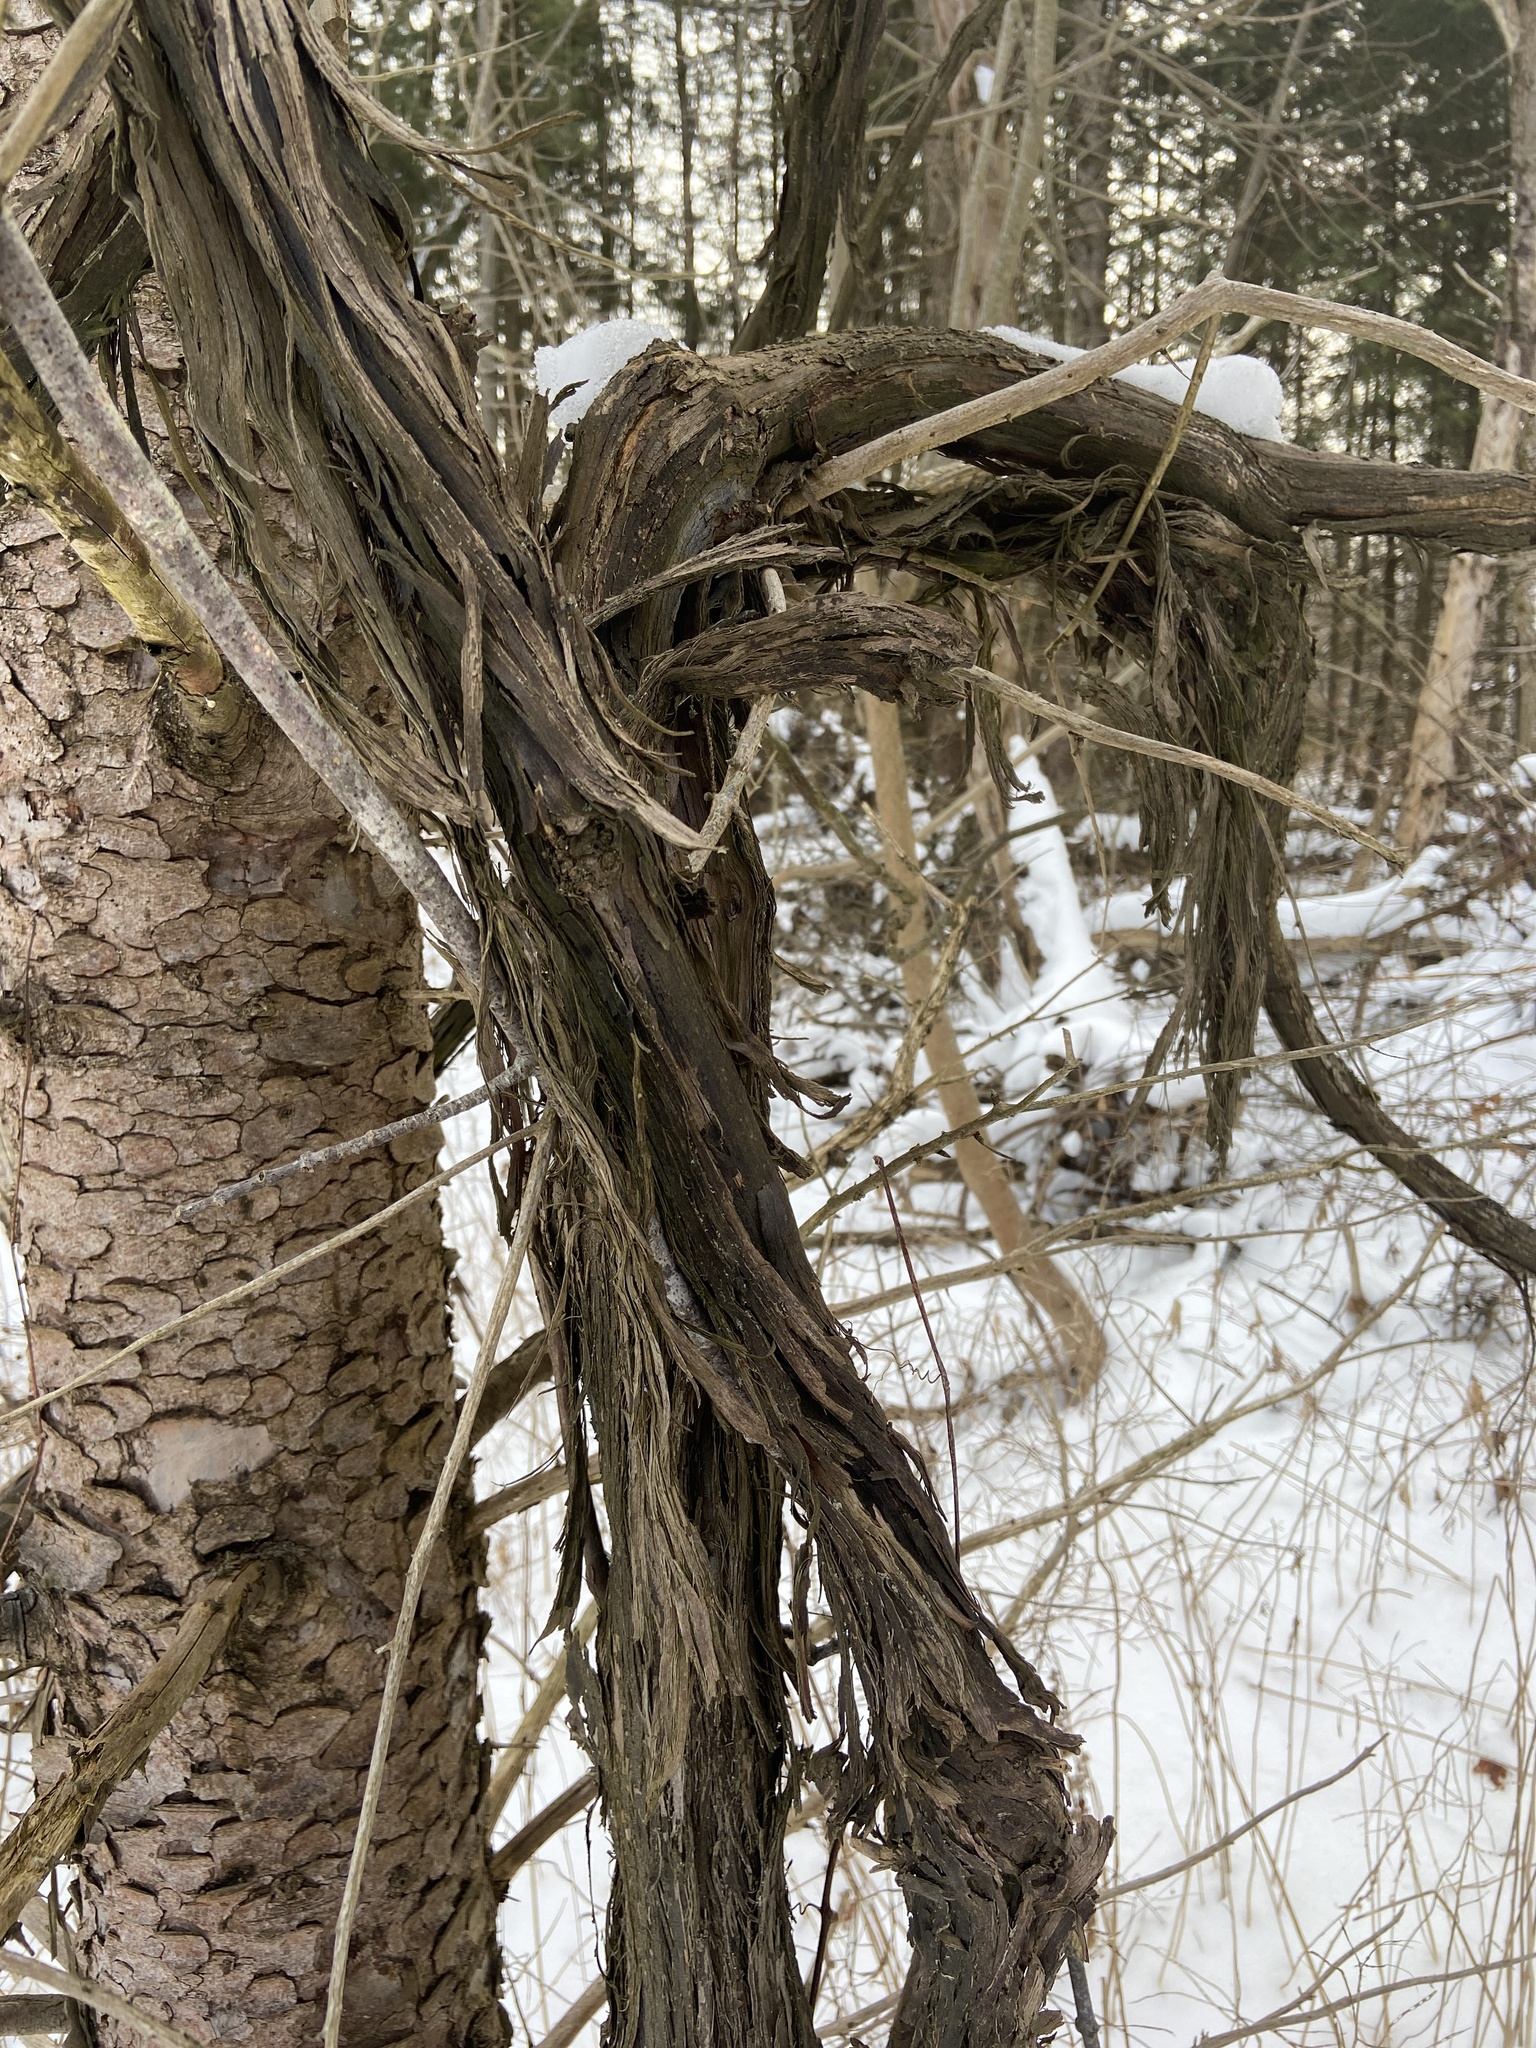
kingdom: Plantae
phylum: Tracheophyta
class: Magnoliopsida
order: Vitales
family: Vitaceae
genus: Vitis
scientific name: Vitis riparia
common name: Frost grape
